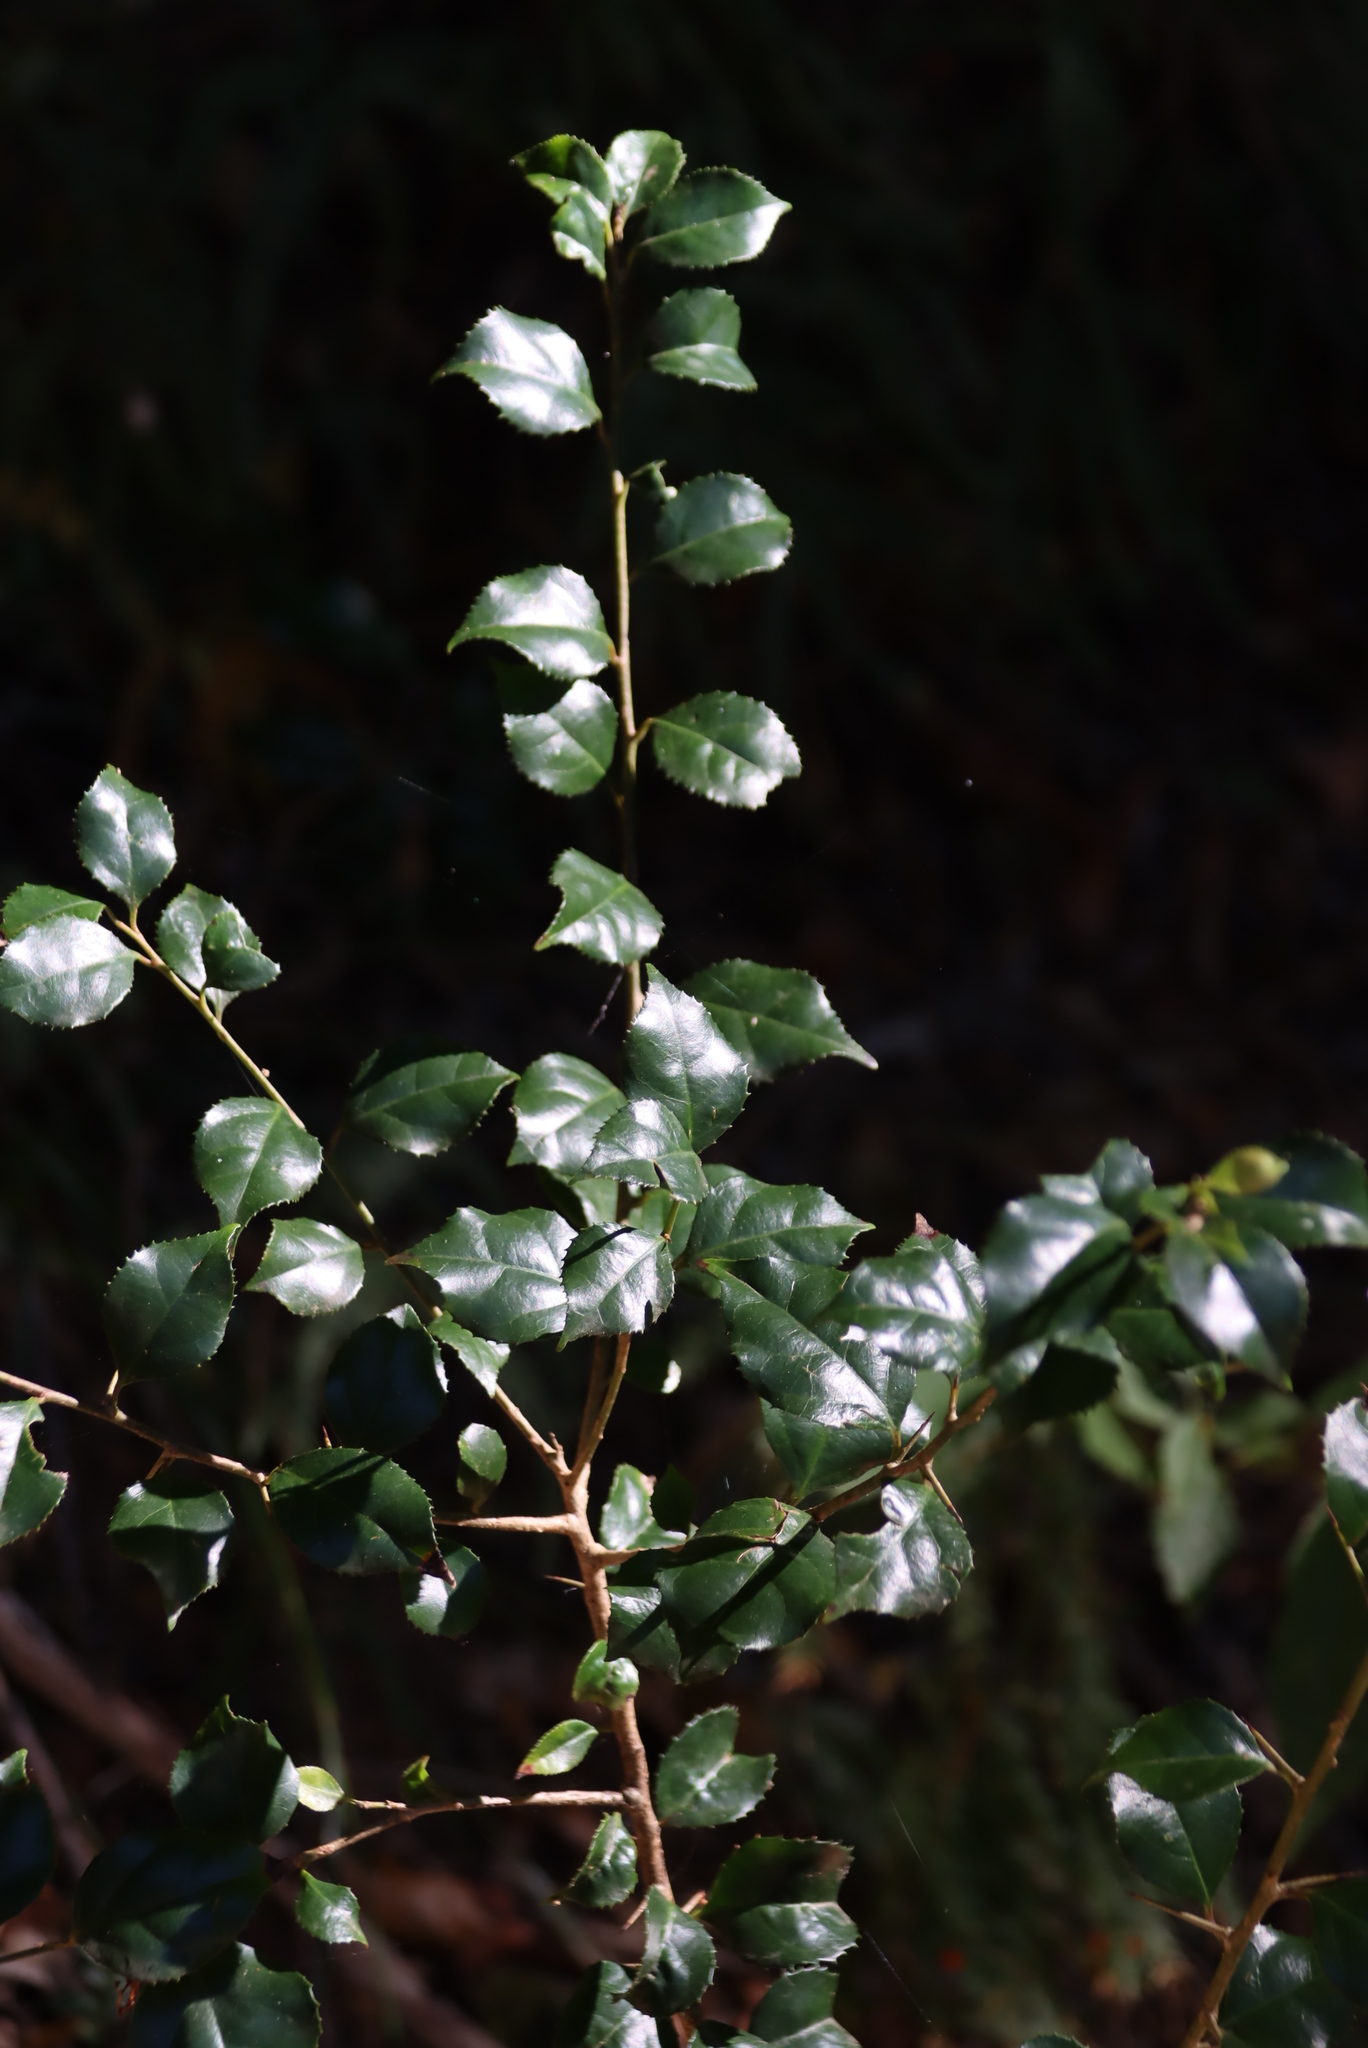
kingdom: Plantae
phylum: Tracheophyta
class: Magnoliopsida
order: Malpighiales
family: Salicaceae
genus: Scolopia
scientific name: Scolopia mundii
